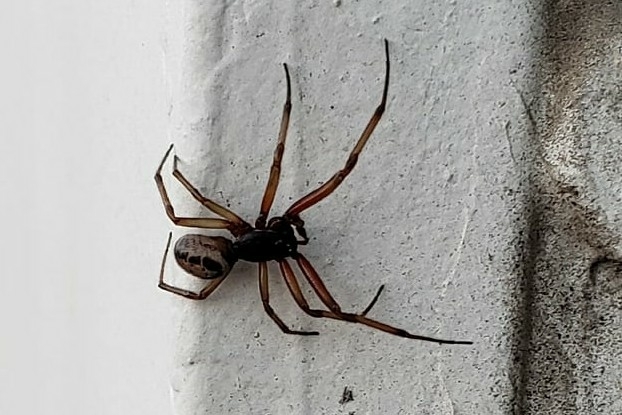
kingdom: Animalia
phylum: Arthropoda
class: Arachnida
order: Araneae
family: Theridiidae
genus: Steatoda
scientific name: Steatoda nobilis
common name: Cobweb weaver
